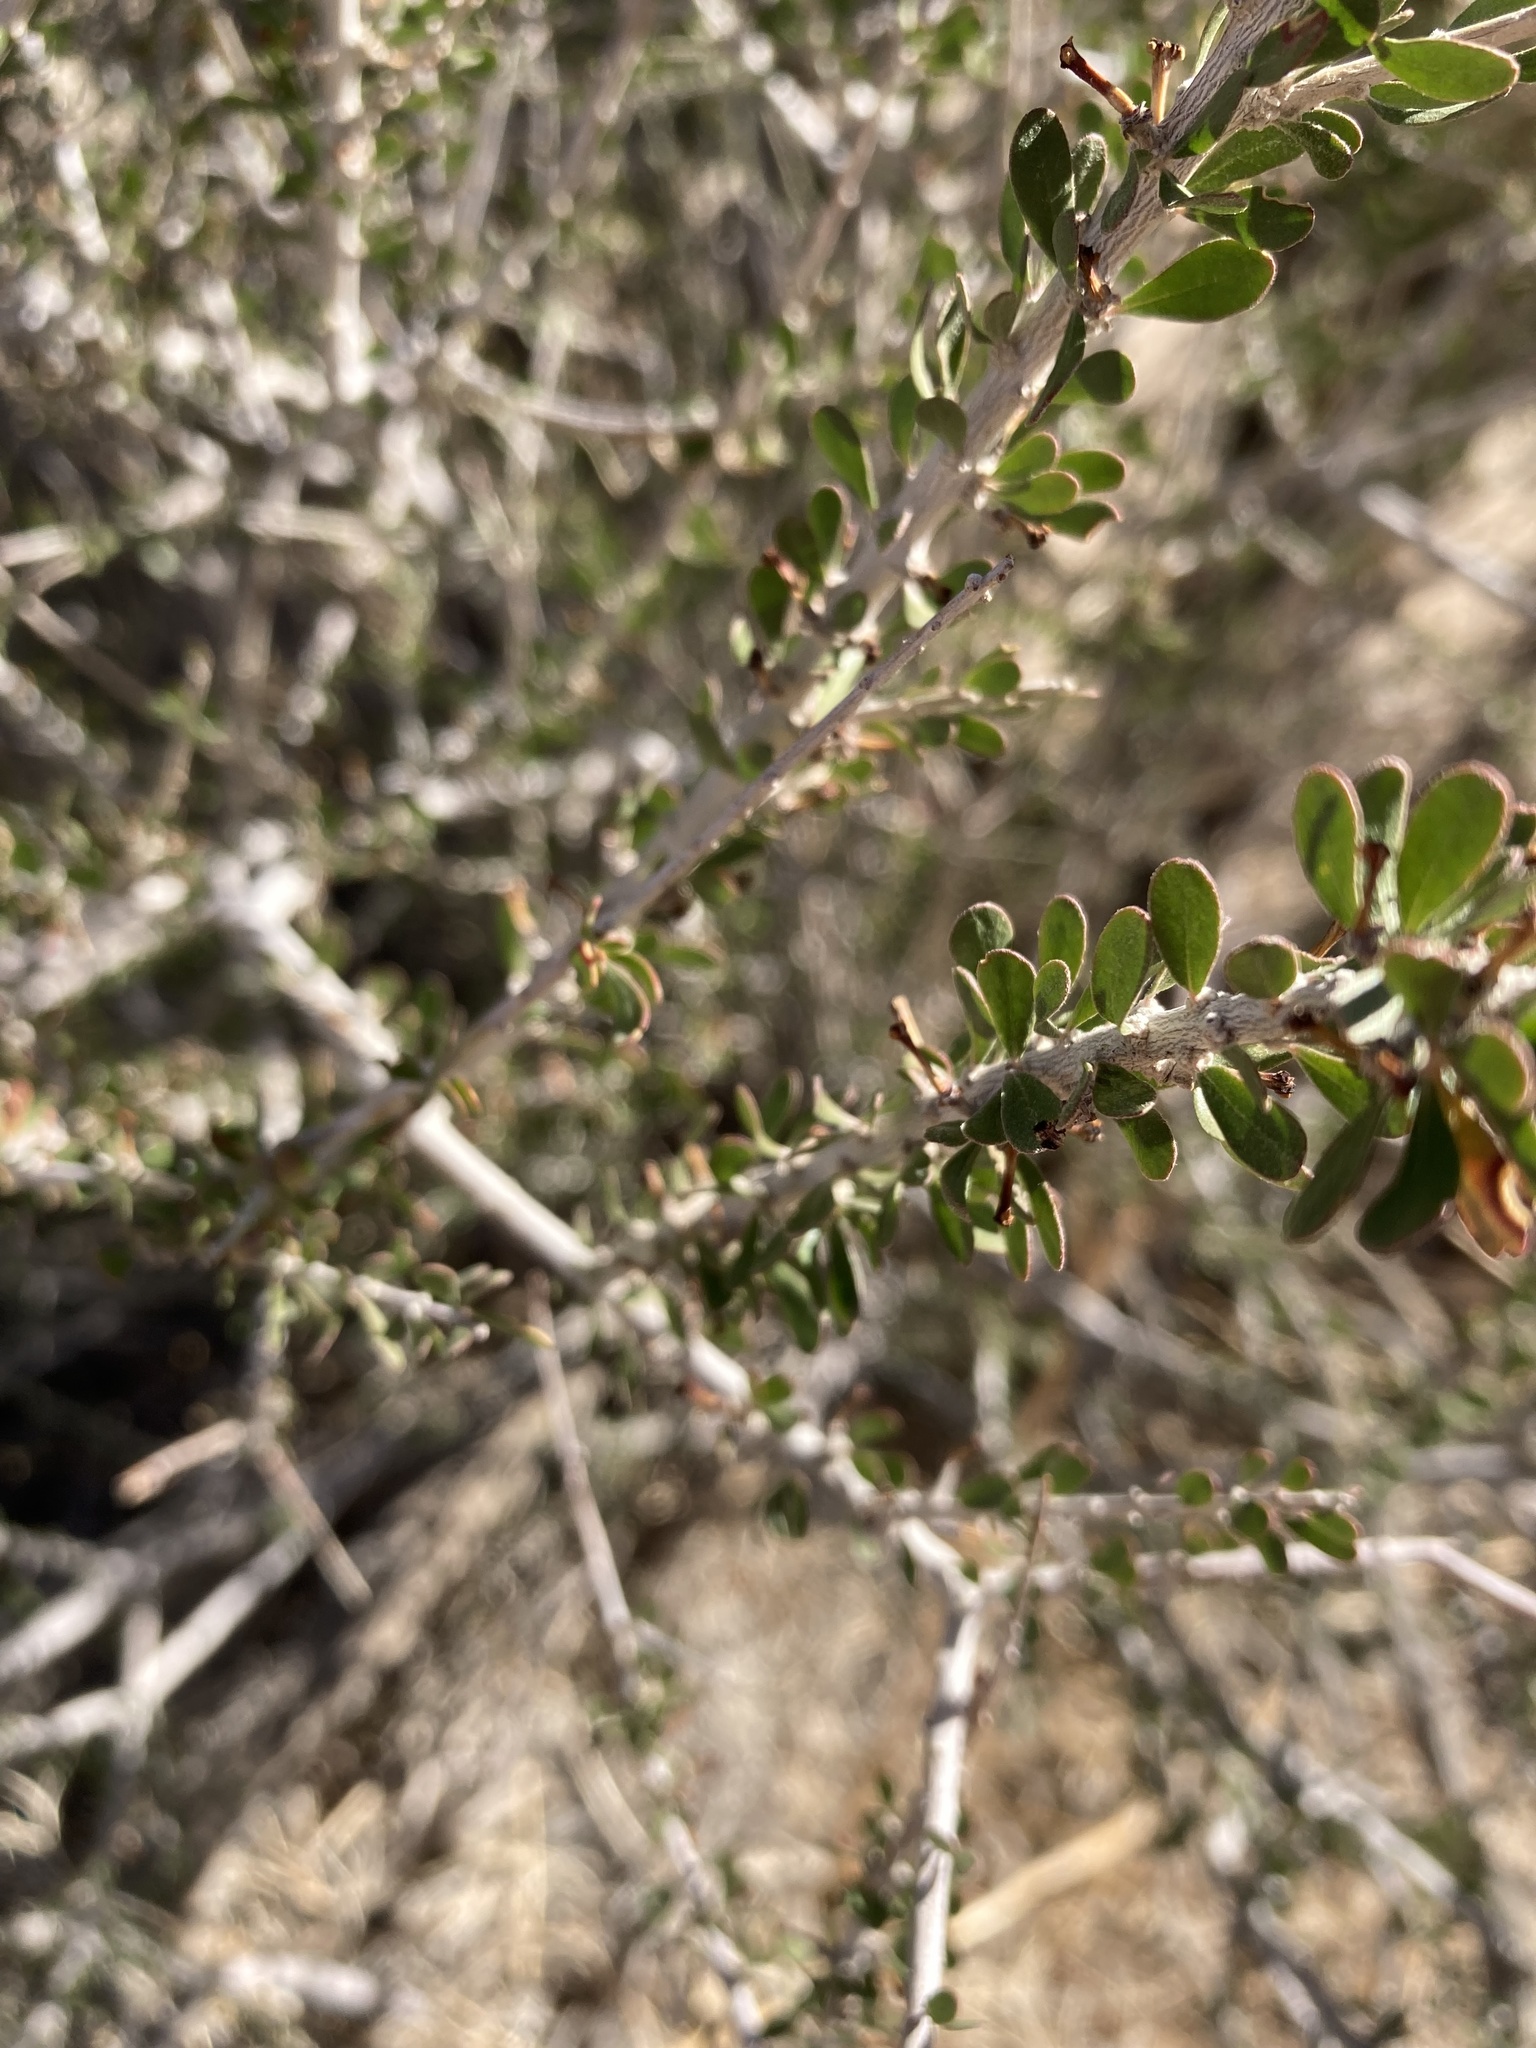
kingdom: Plantae
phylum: Tracheophyta
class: Magnoliopsida
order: Malpighiales
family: Picrodendraceae
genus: Tetracoccus
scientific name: Tetracoccus hallii
